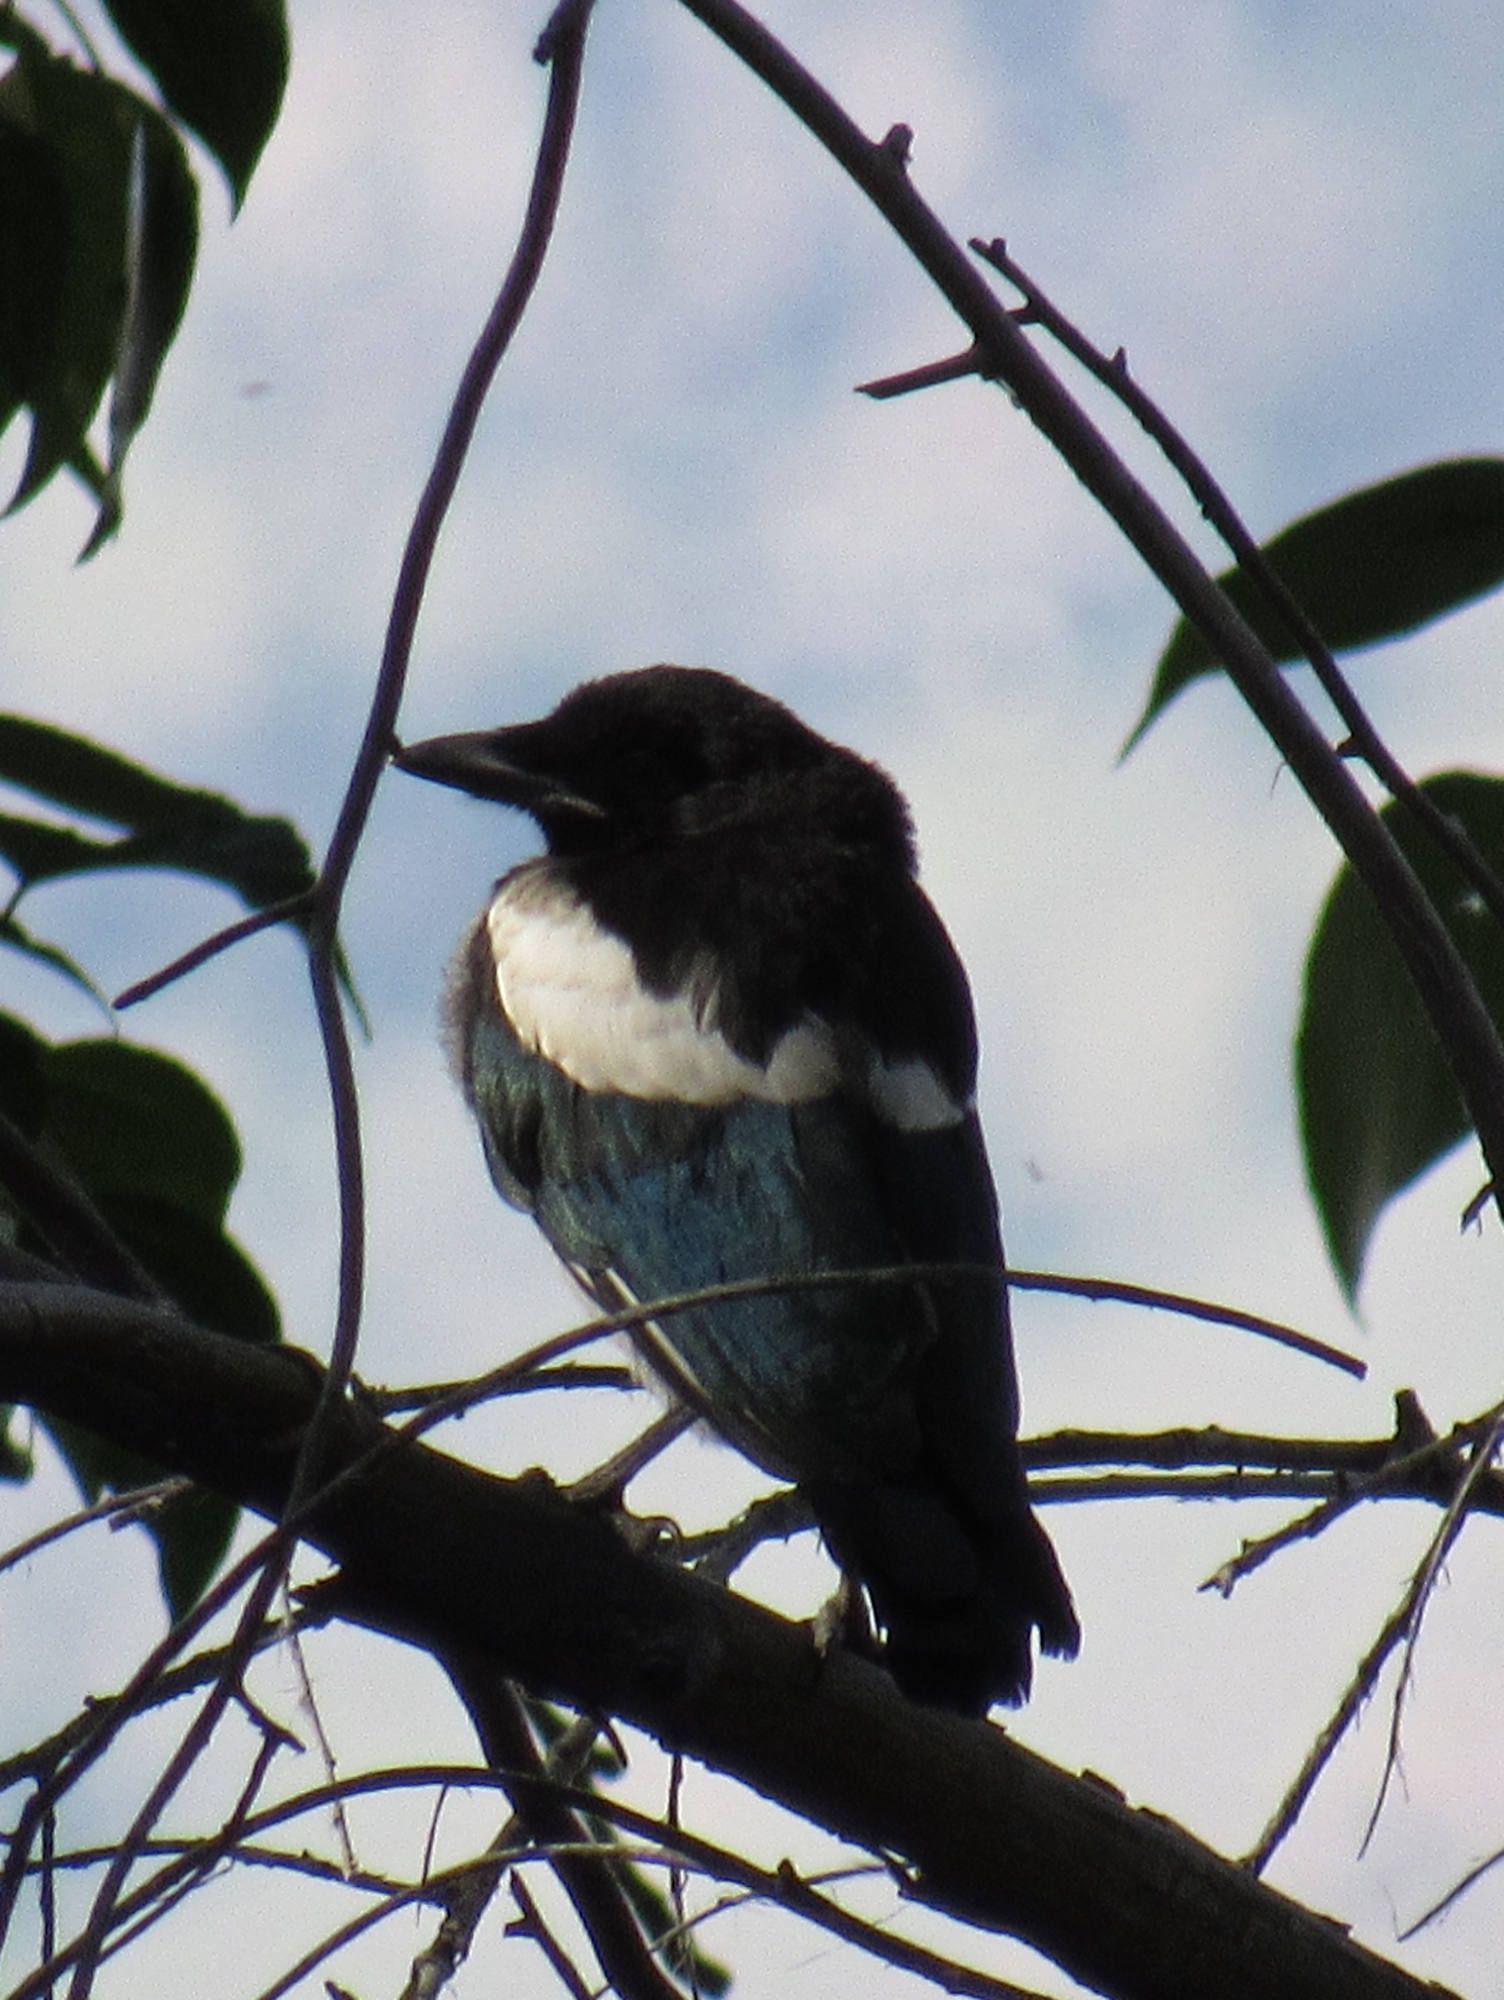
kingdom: Animalia
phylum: Chordata
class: Aves
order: Passeriformes
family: Corvidae
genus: Pica
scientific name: Pica hudsonia
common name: Black-billed magpie
